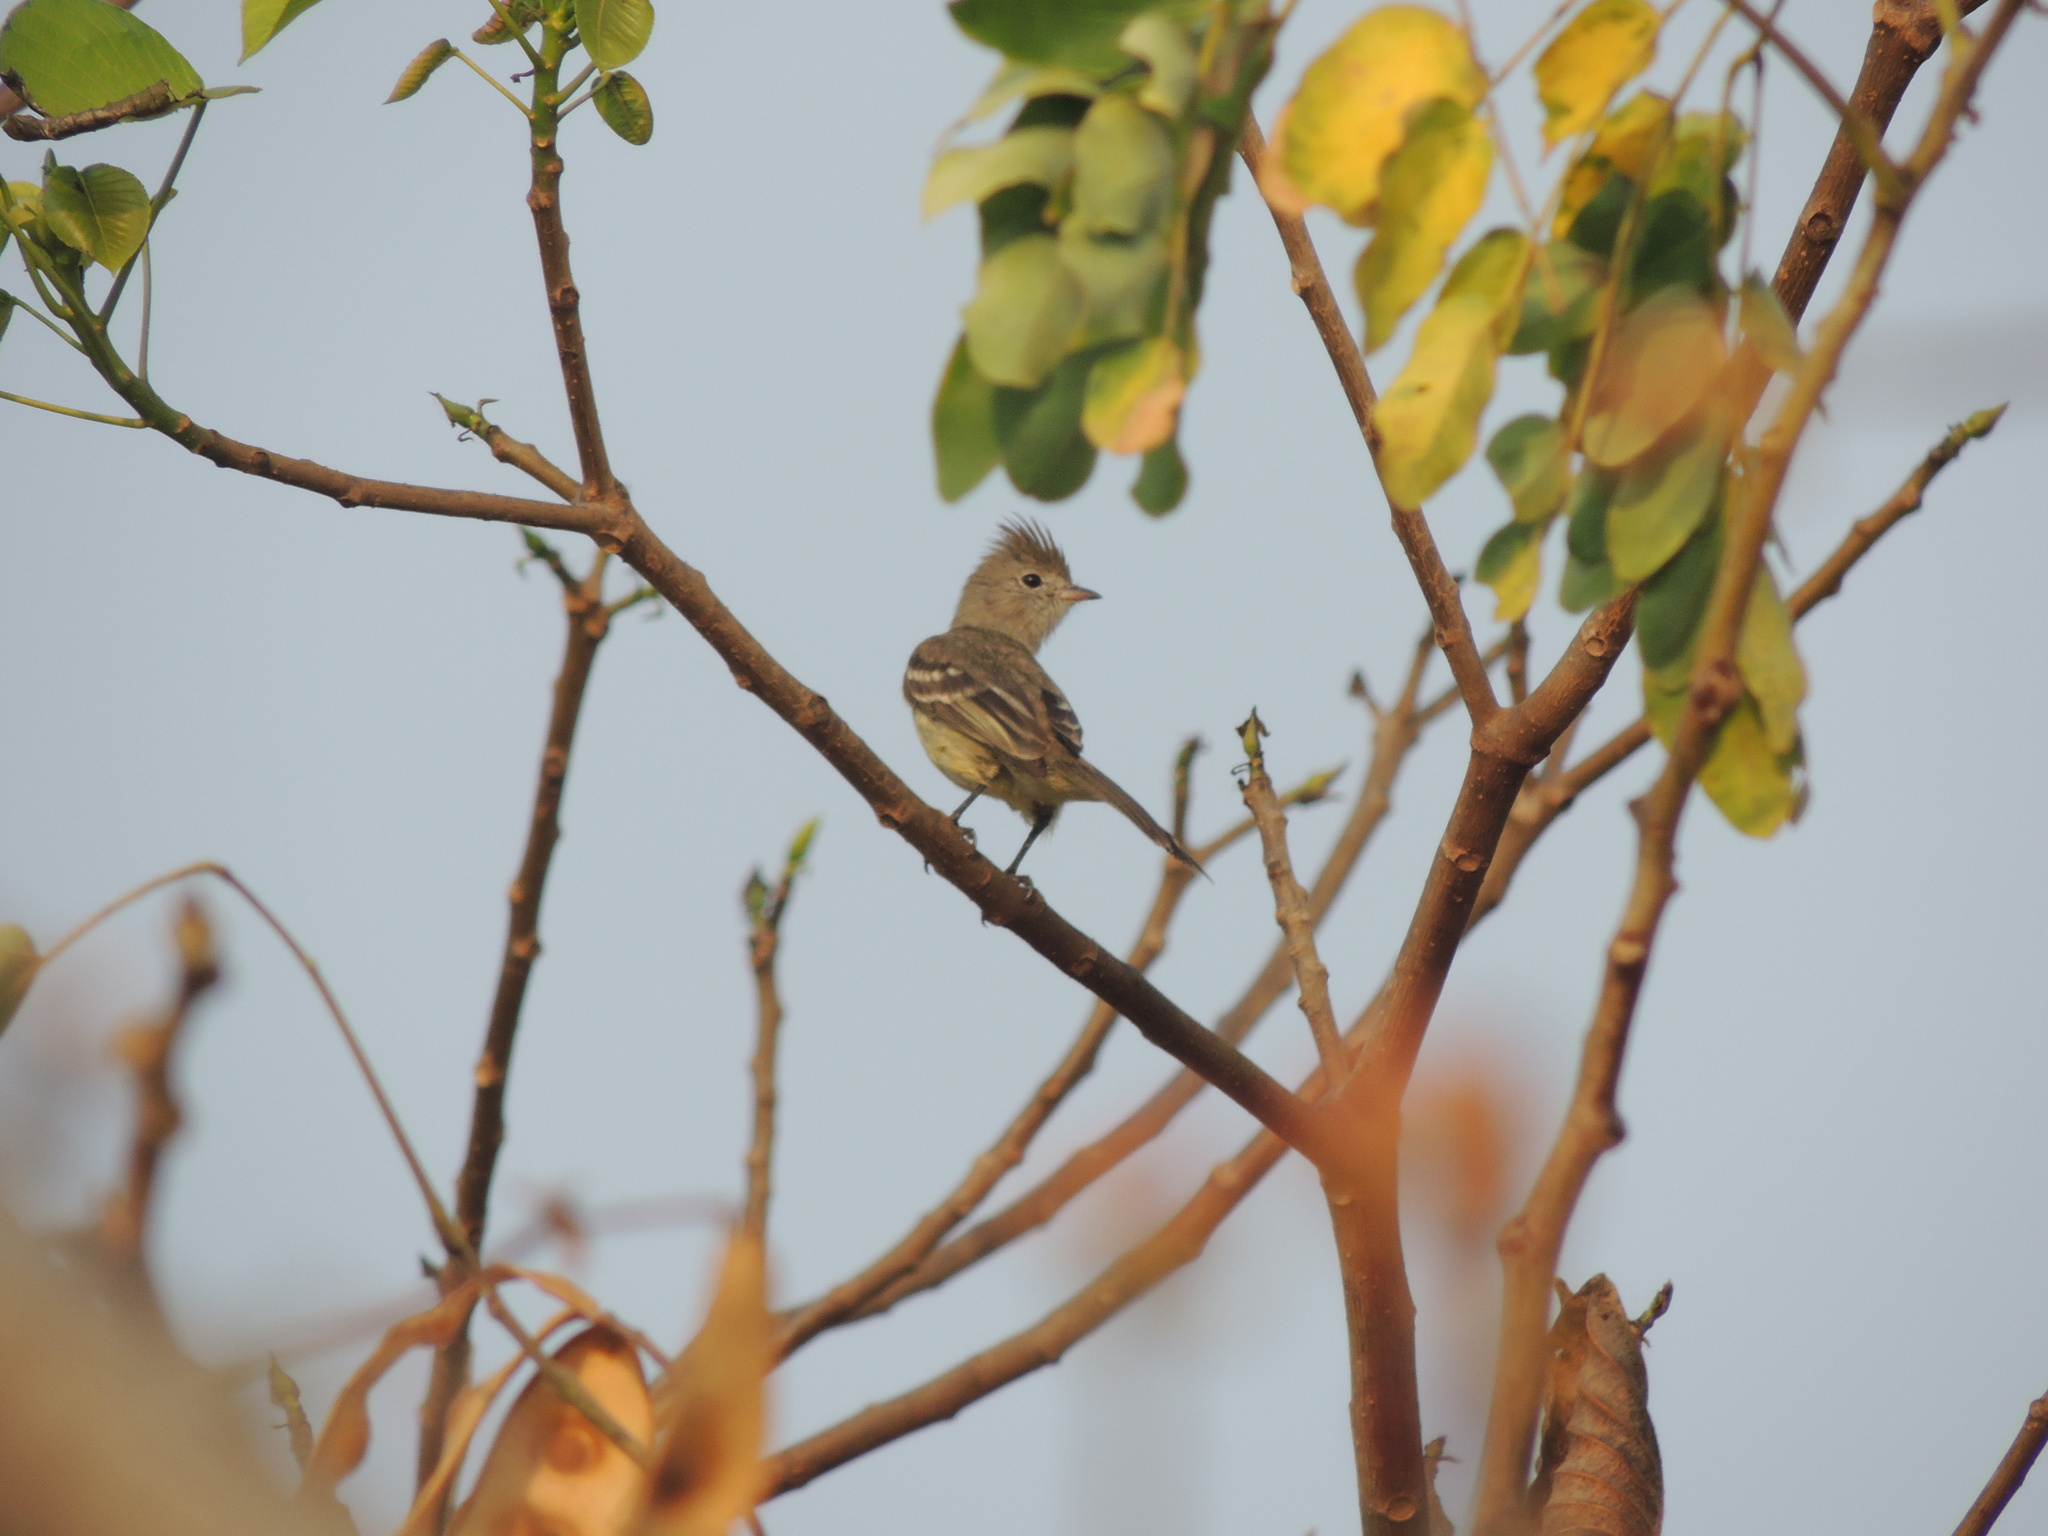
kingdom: Animalia
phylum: Chordata
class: Aves
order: Passeriformes
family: Tyrannidae
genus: Elaenia
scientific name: Elaenia flavogaster
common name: Yellow-bellied elaenia
